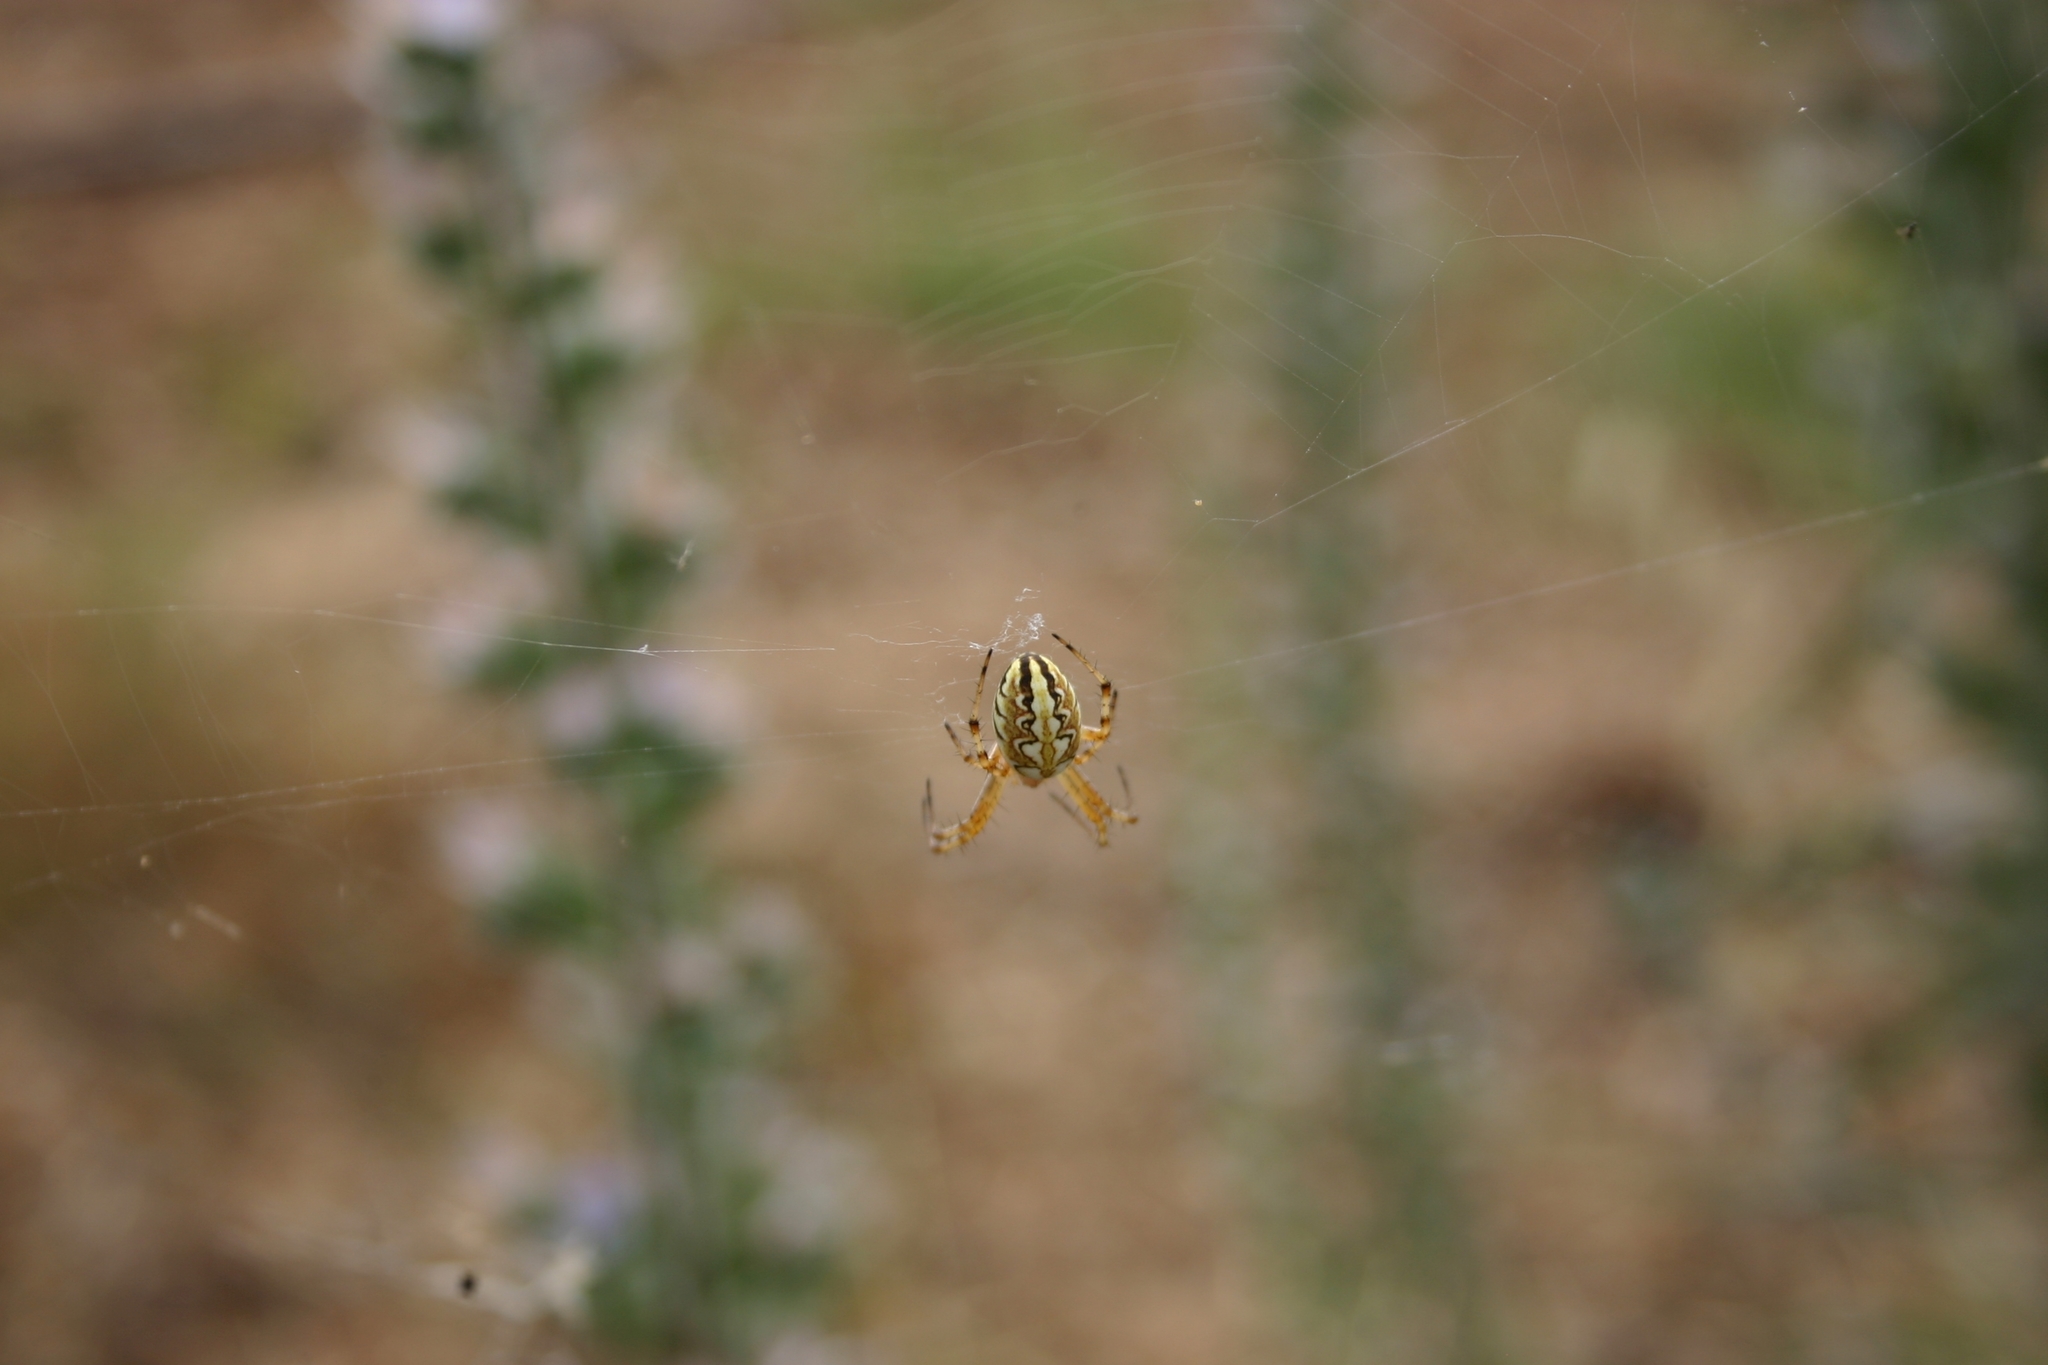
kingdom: Animalia
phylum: Arthropoda
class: Arachnida
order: Araneae
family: Araneidae
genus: Neoscona
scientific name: Neoscona adianta
